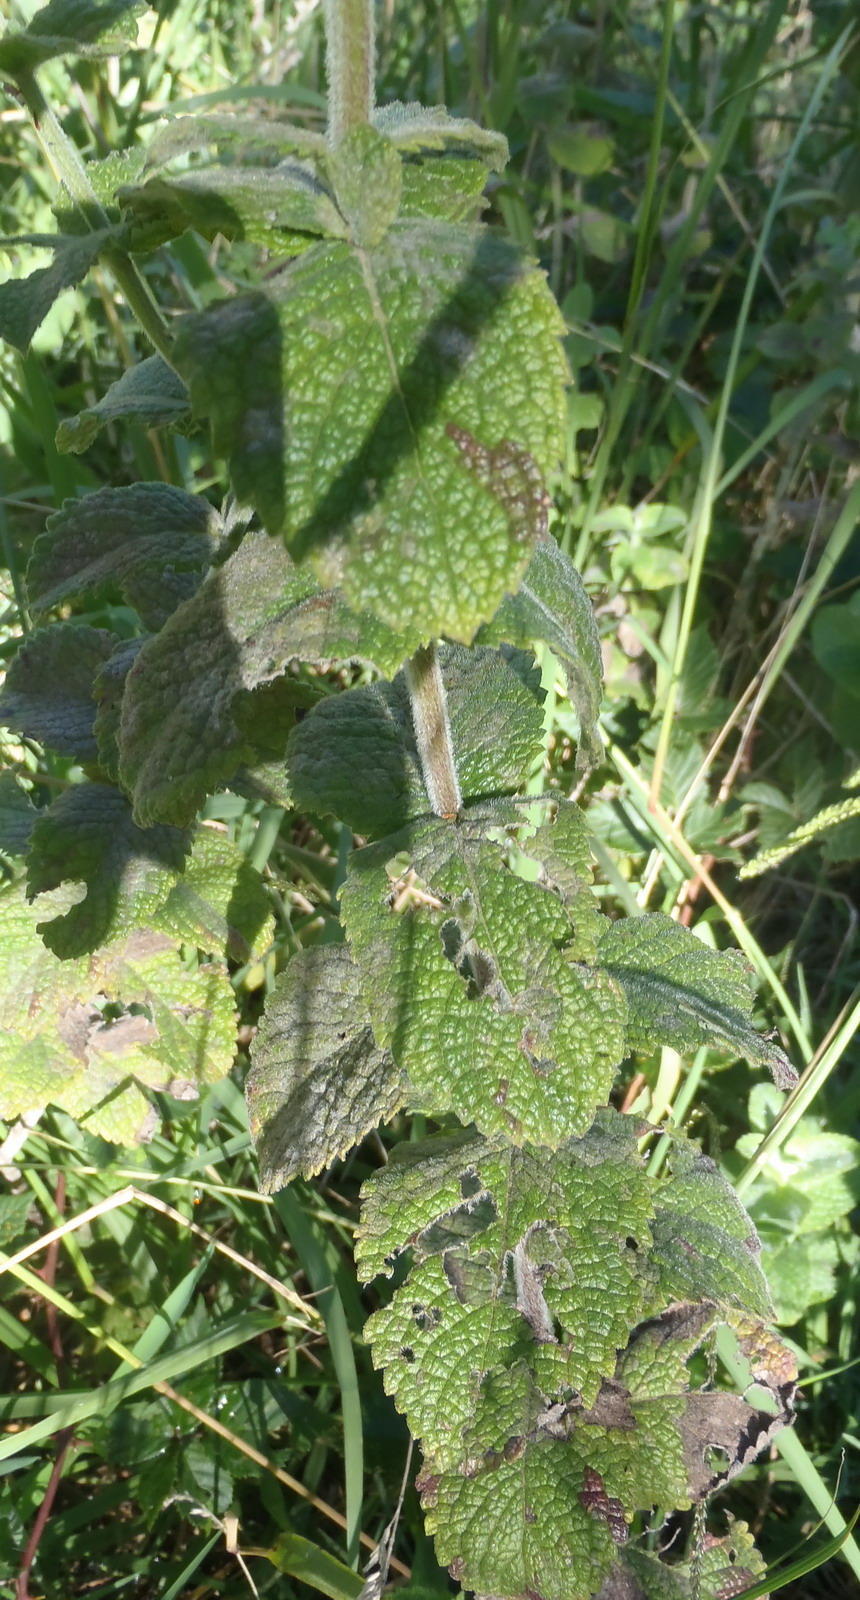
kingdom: Plantae
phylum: Tracheophyta
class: Magnoliopsida
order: Lamiales
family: Lamiaceae
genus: Mentha
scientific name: Mentha suaveolens
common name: Apple mint
